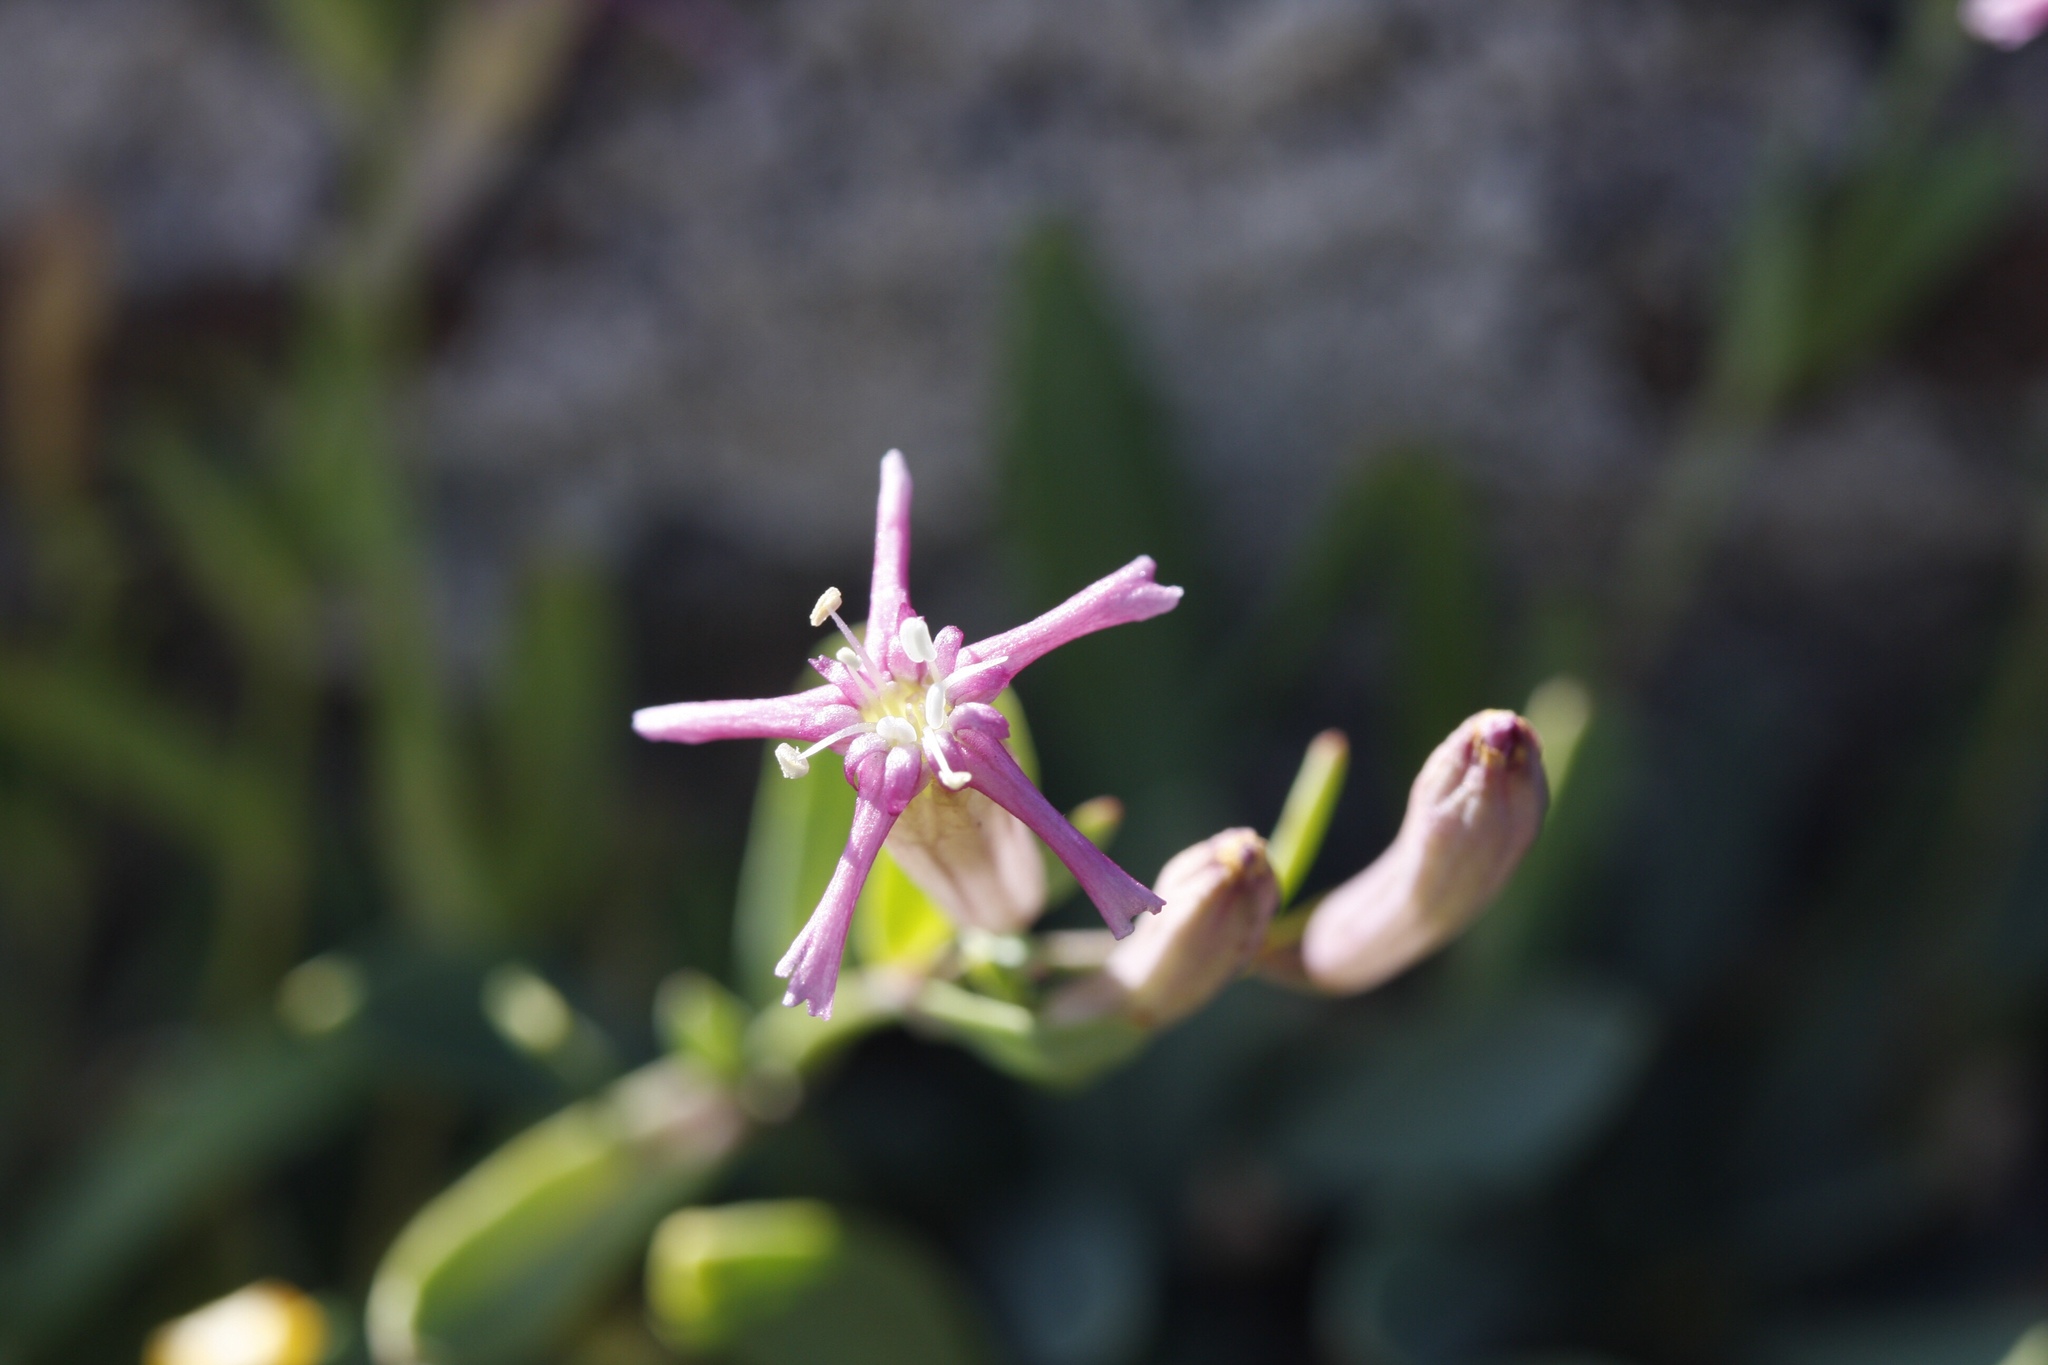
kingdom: Plantae
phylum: Tracheophyta
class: Magnoliopsida
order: Caryophyllales
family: Caryophyllaceae
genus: Atocion
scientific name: Atocion lerchenfeldianum
